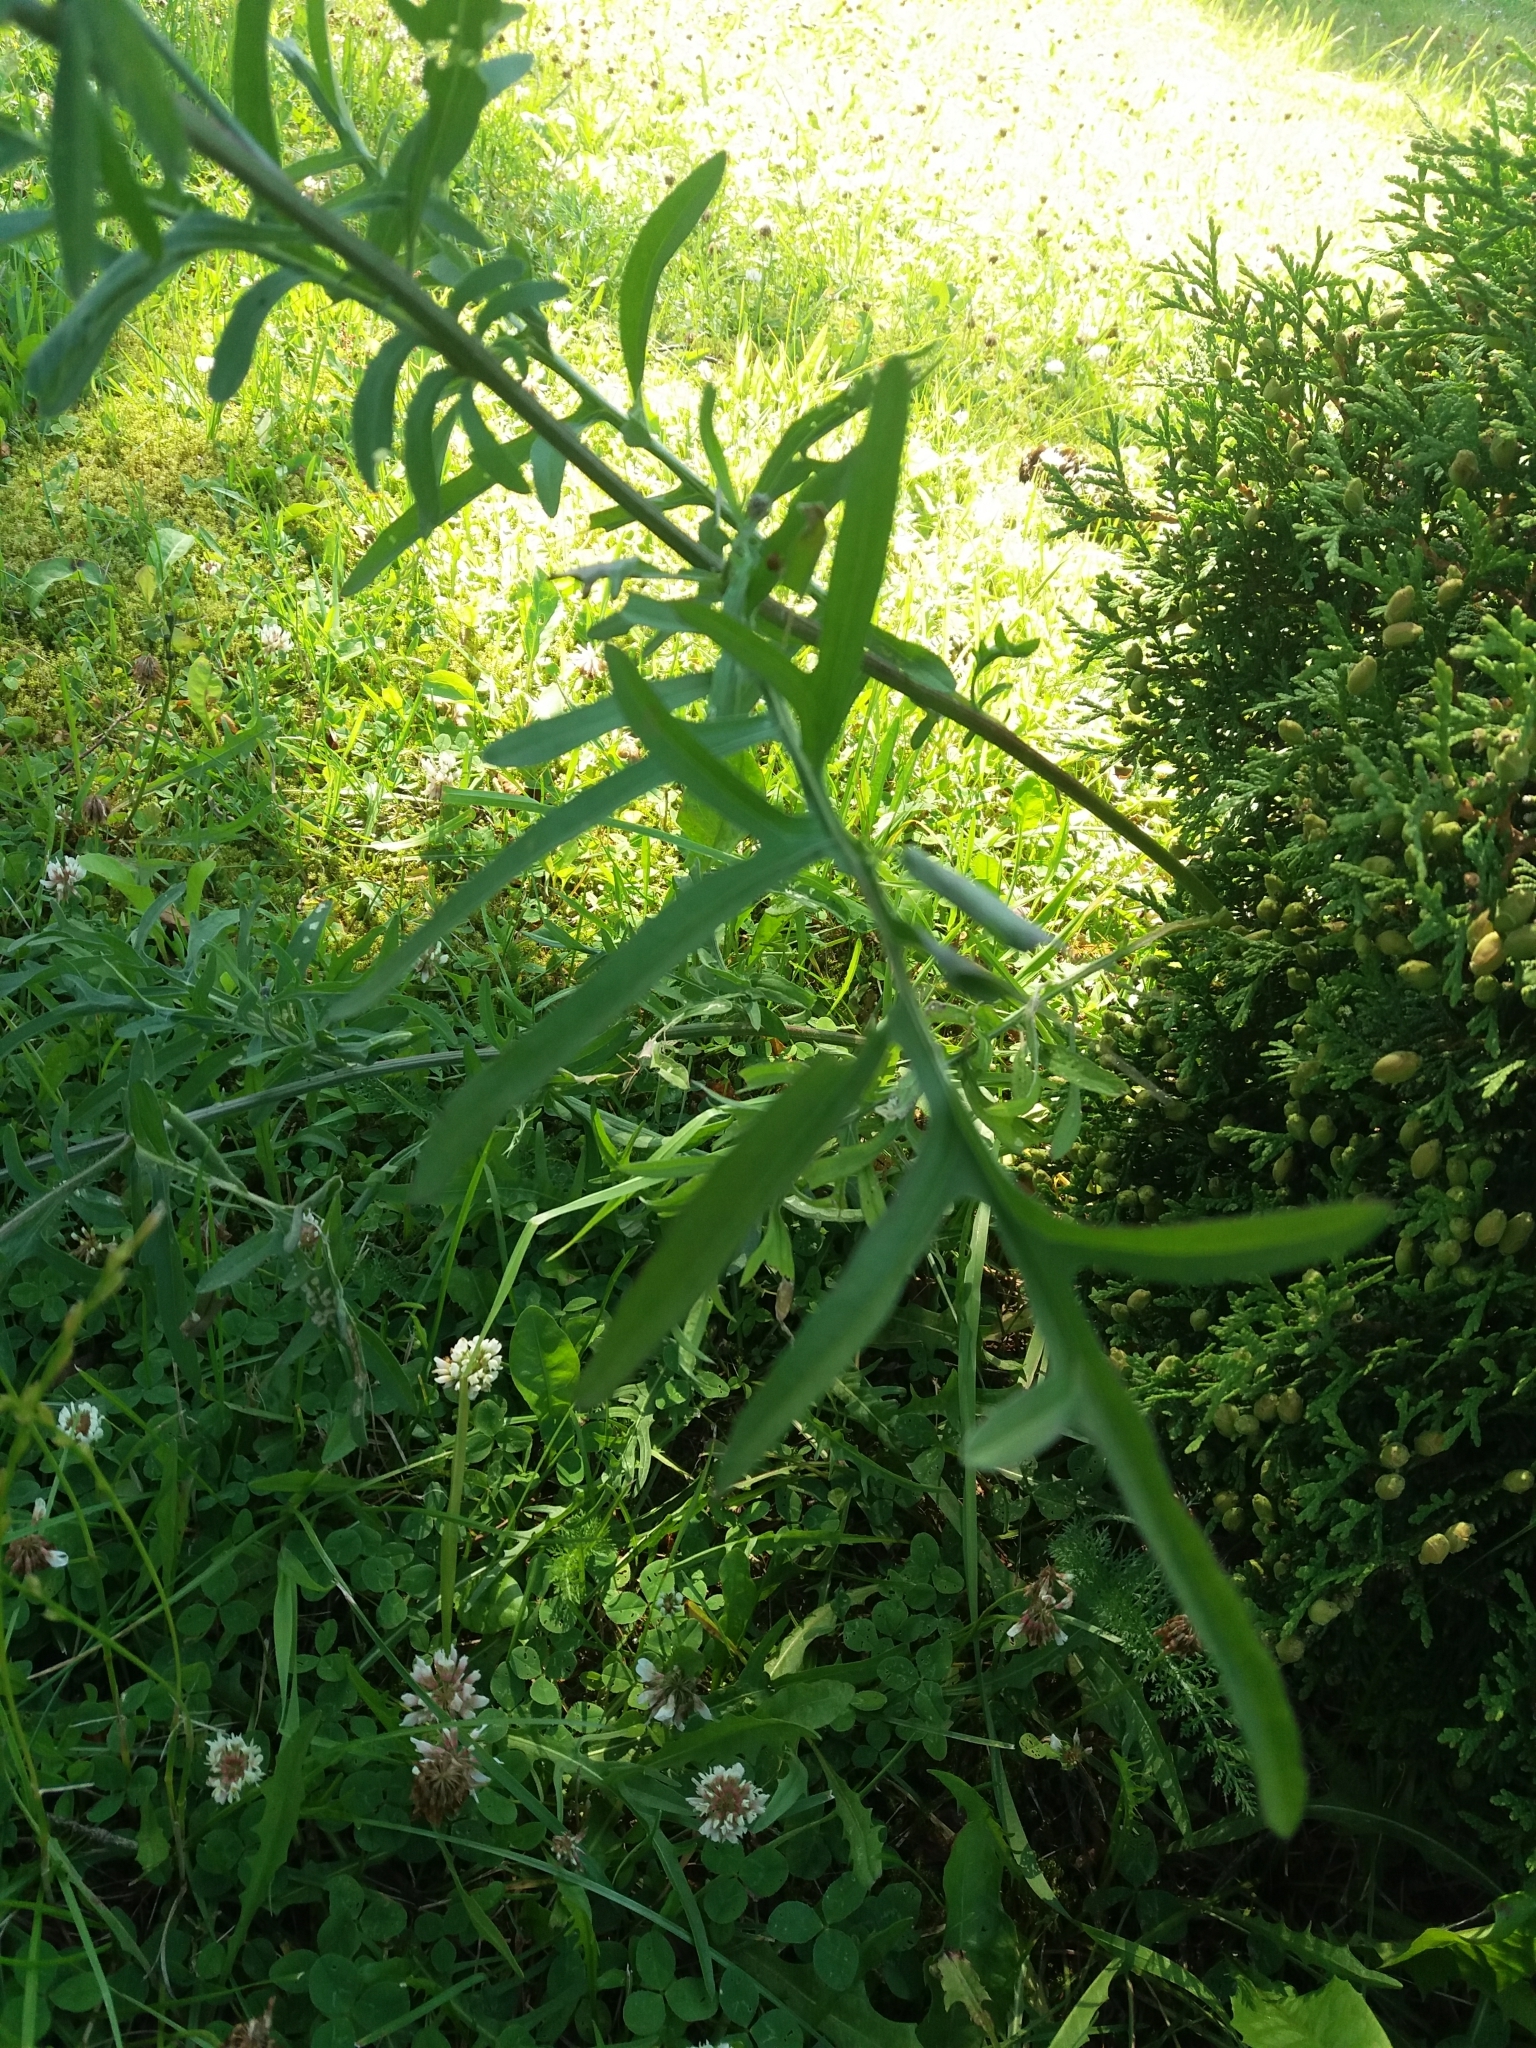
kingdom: Plantae
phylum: Tracheophyta
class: Magnoliopsida
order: Asterales
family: Asteraceae
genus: Centaurea
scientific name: Centaurea scabiosa
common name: Greater knapweed
